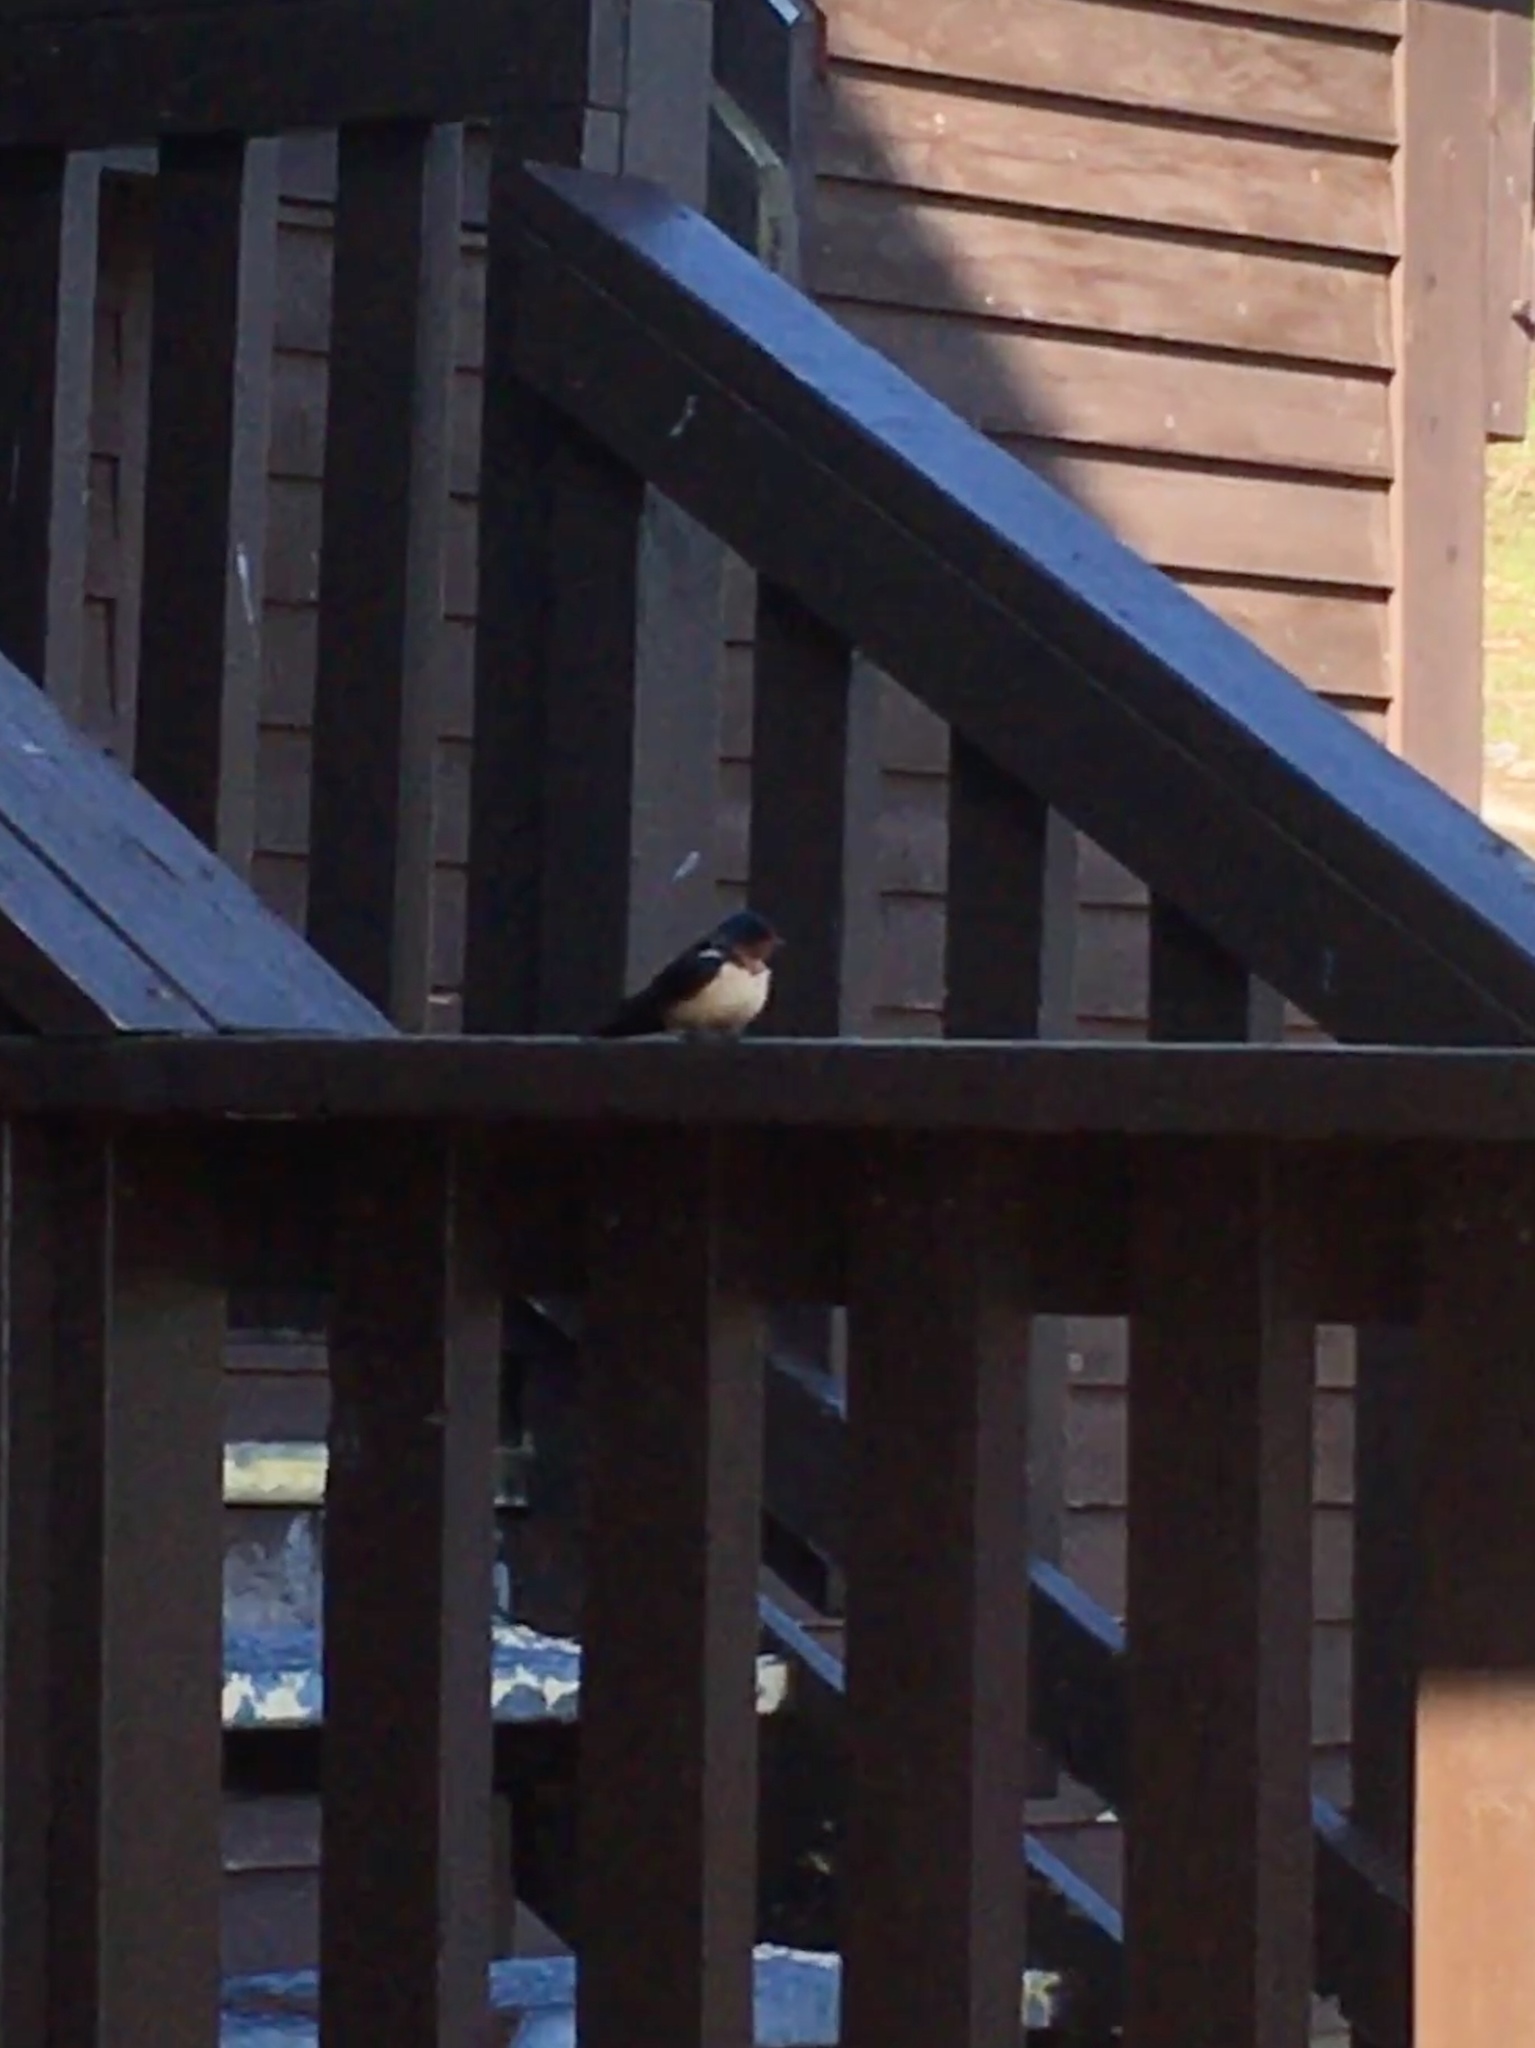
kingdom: Animalia
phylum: Chordata
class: Aves
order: Passeriformes
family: Hirundinidae
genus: Hirundo
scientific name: Hirundo rustica
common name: Barn swallow
